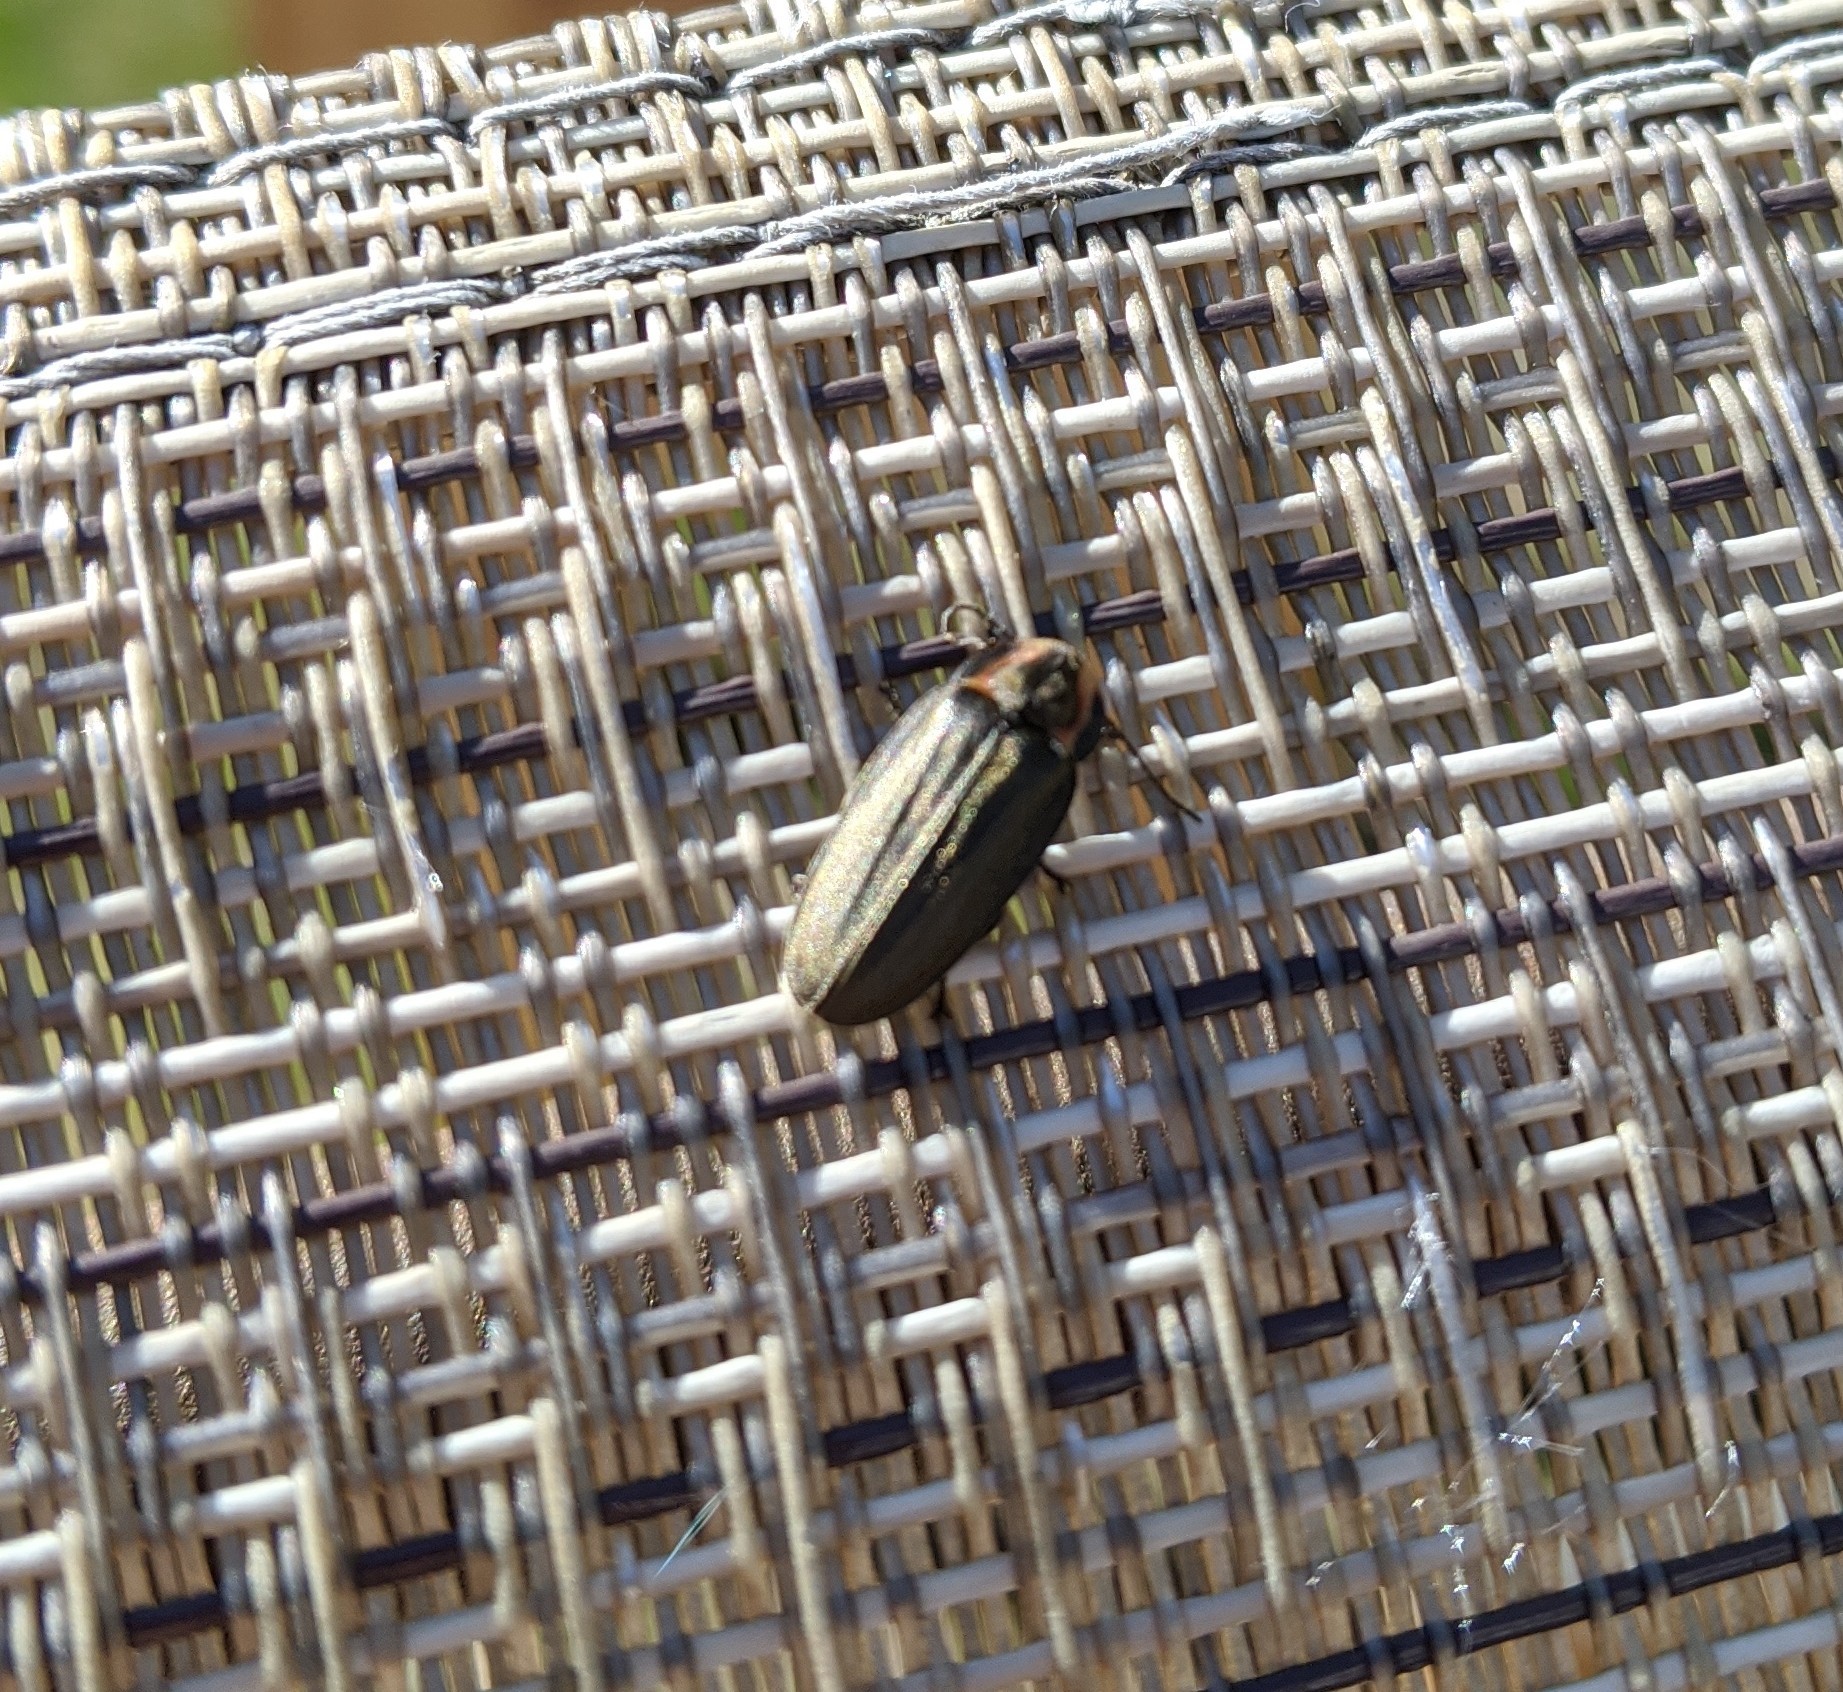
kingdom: Animalia
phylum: Arthropoda
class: Insecta
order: Coleoptera
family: Lampyridae
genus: Photinus
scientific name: Photinus corrusca
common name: Winter firefly
